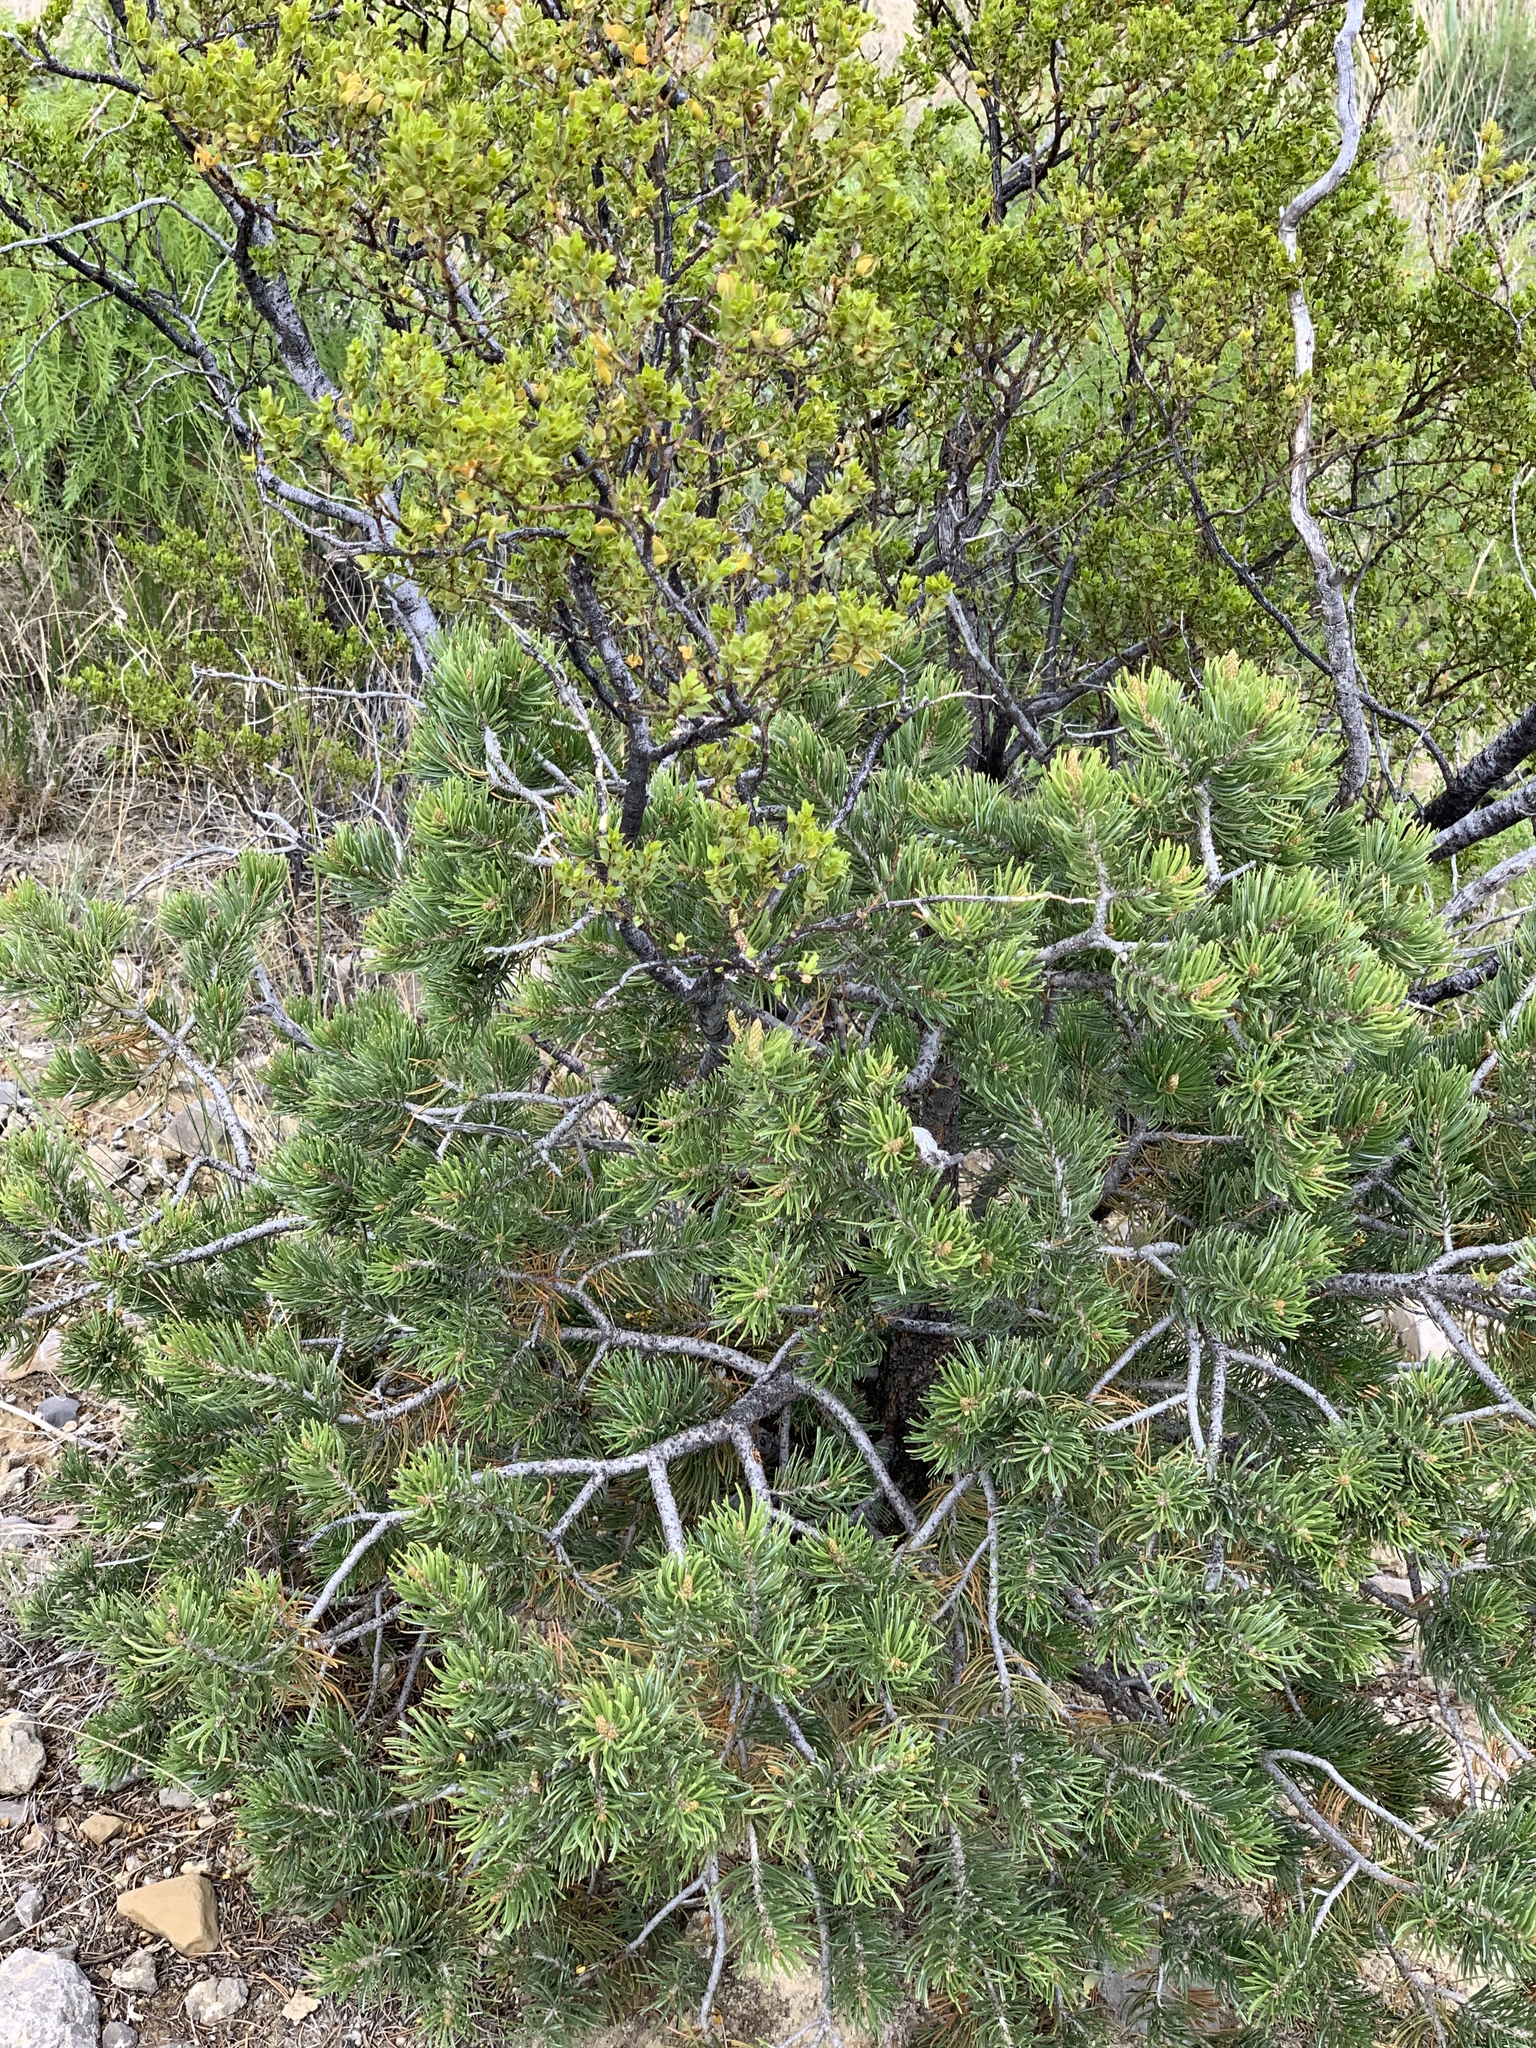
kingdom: Plantae
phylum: Tracheophyta
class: Pinopsida
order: Pinales
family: Pinaceae
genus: Pinus
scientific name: Pinus edulis
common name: Colorado pinyon
